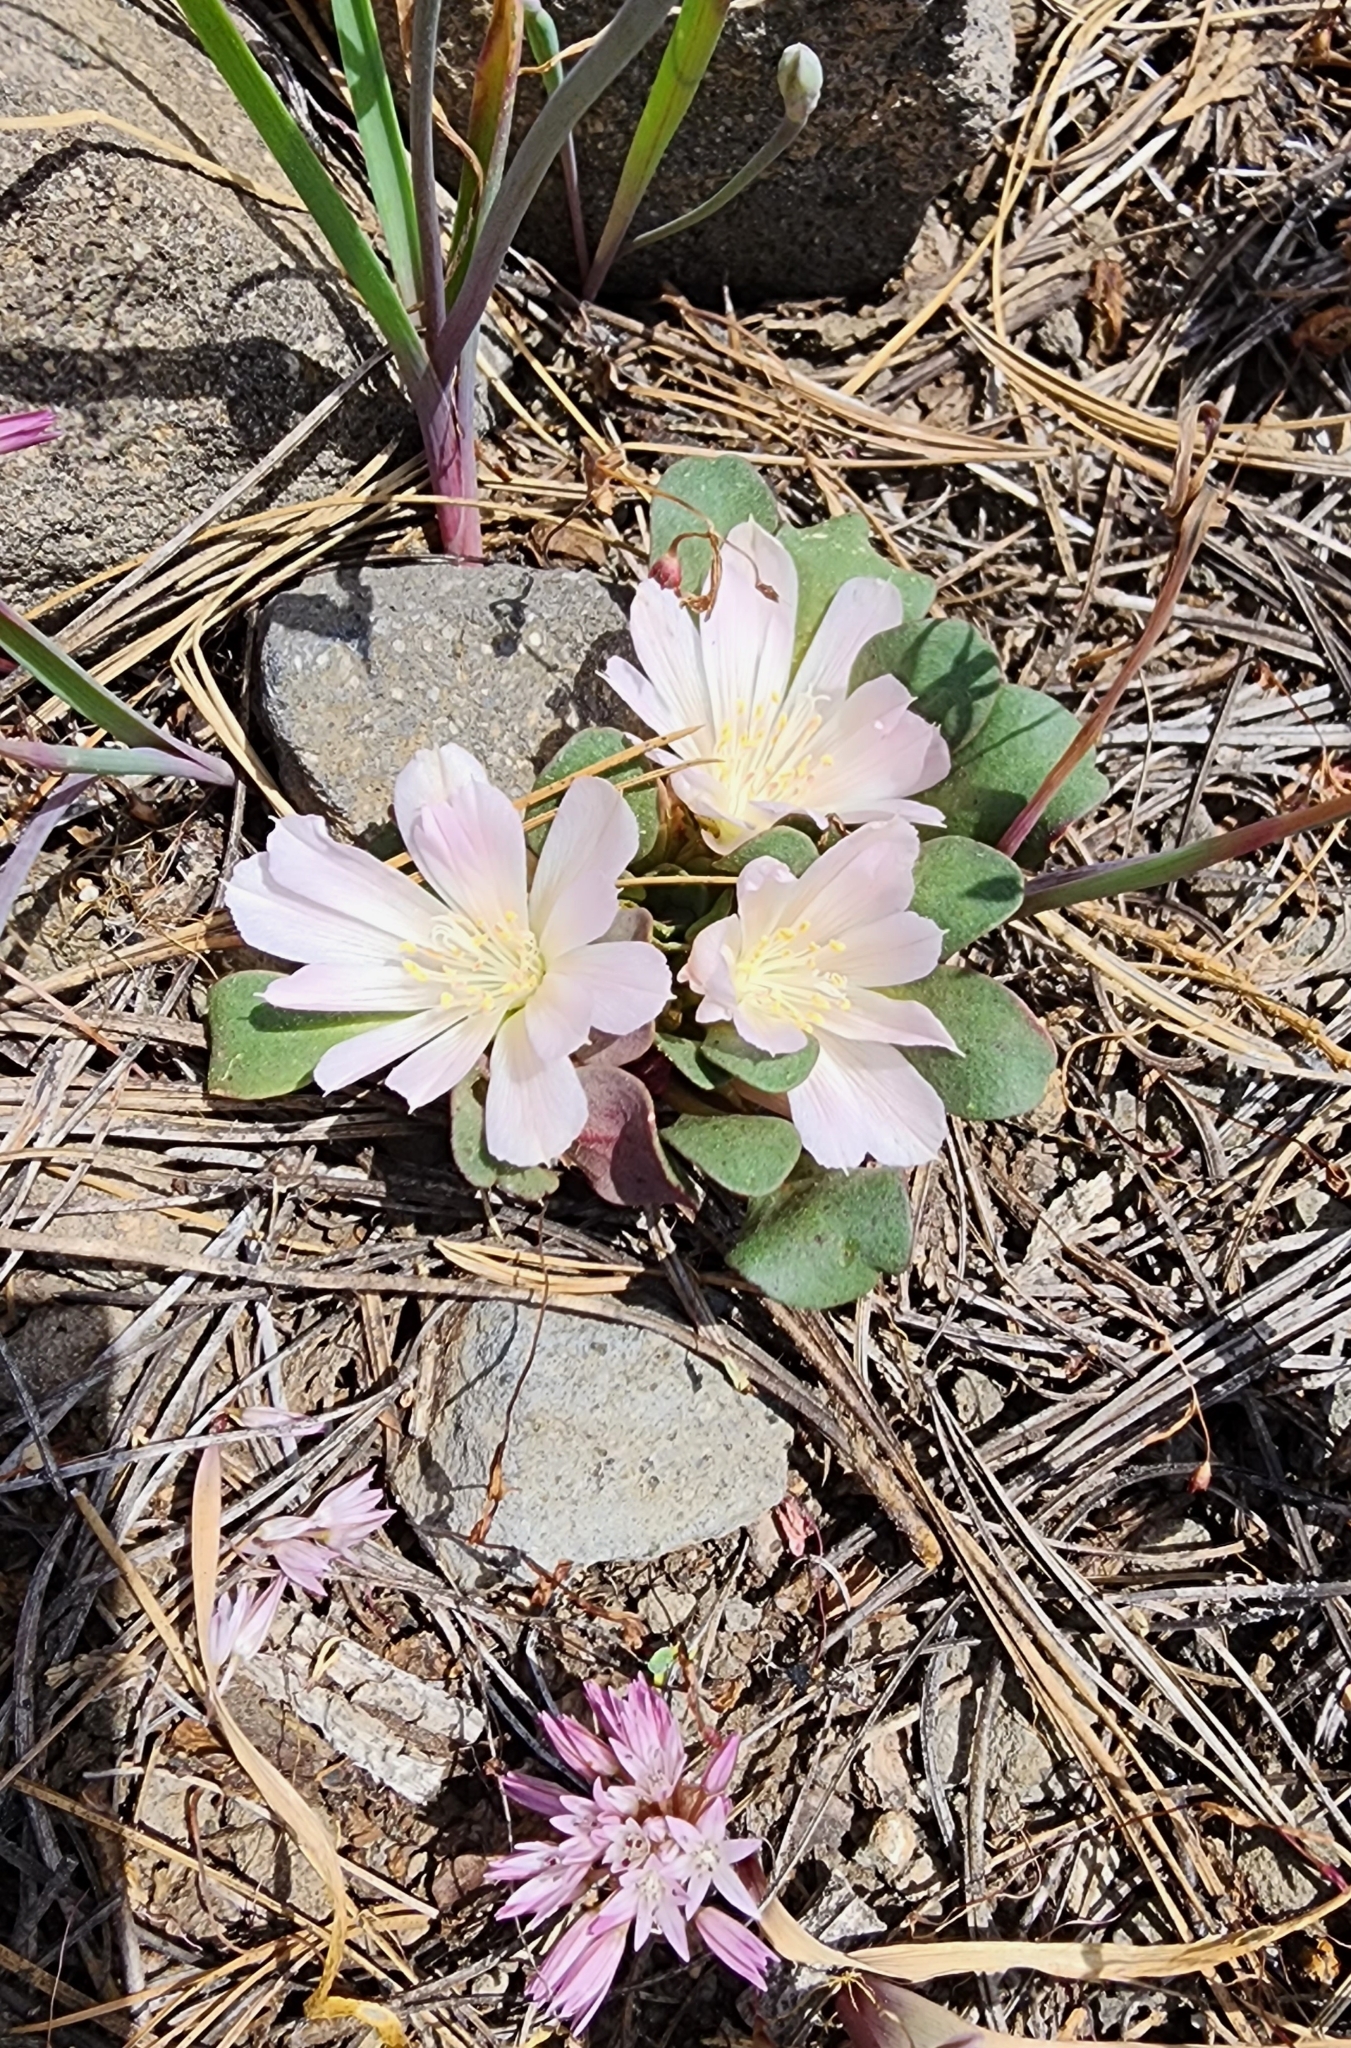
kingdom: Animalia
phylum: Arthropoda
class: Insecta
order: Coleoptera
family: Meloidae
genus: Nemognatha
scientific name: Nemognatha scutellaris
